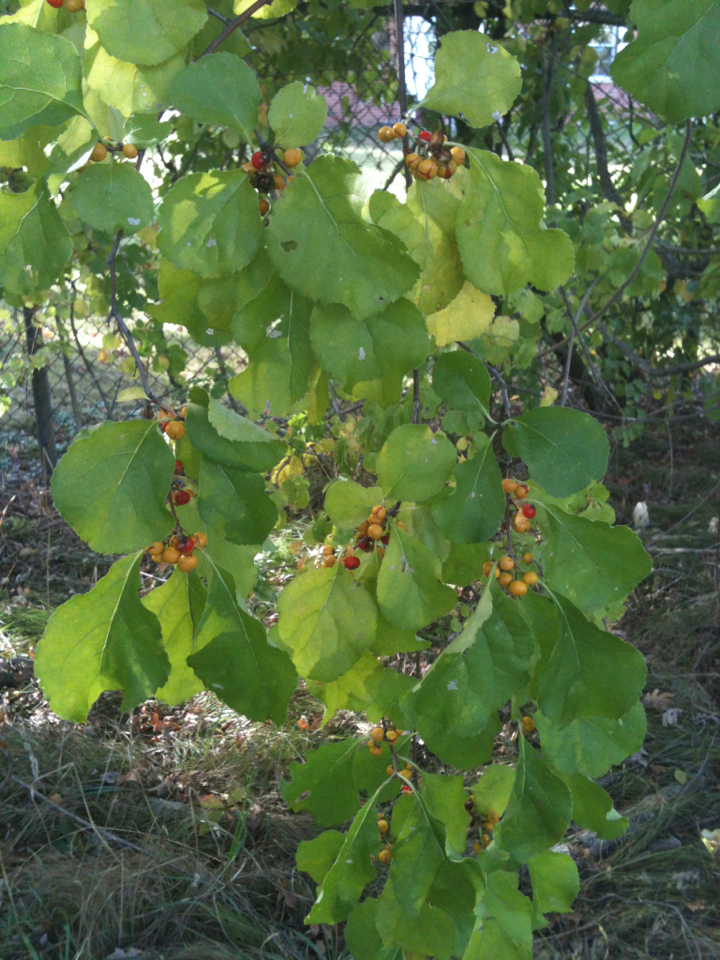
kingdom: Plantae
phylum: Tracheophyta
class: Magnoliopsida
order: Celastrales
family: Celastraceae
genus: Celastrus
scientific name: Celastrus orbiculatus
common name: Oriental bittersweet
